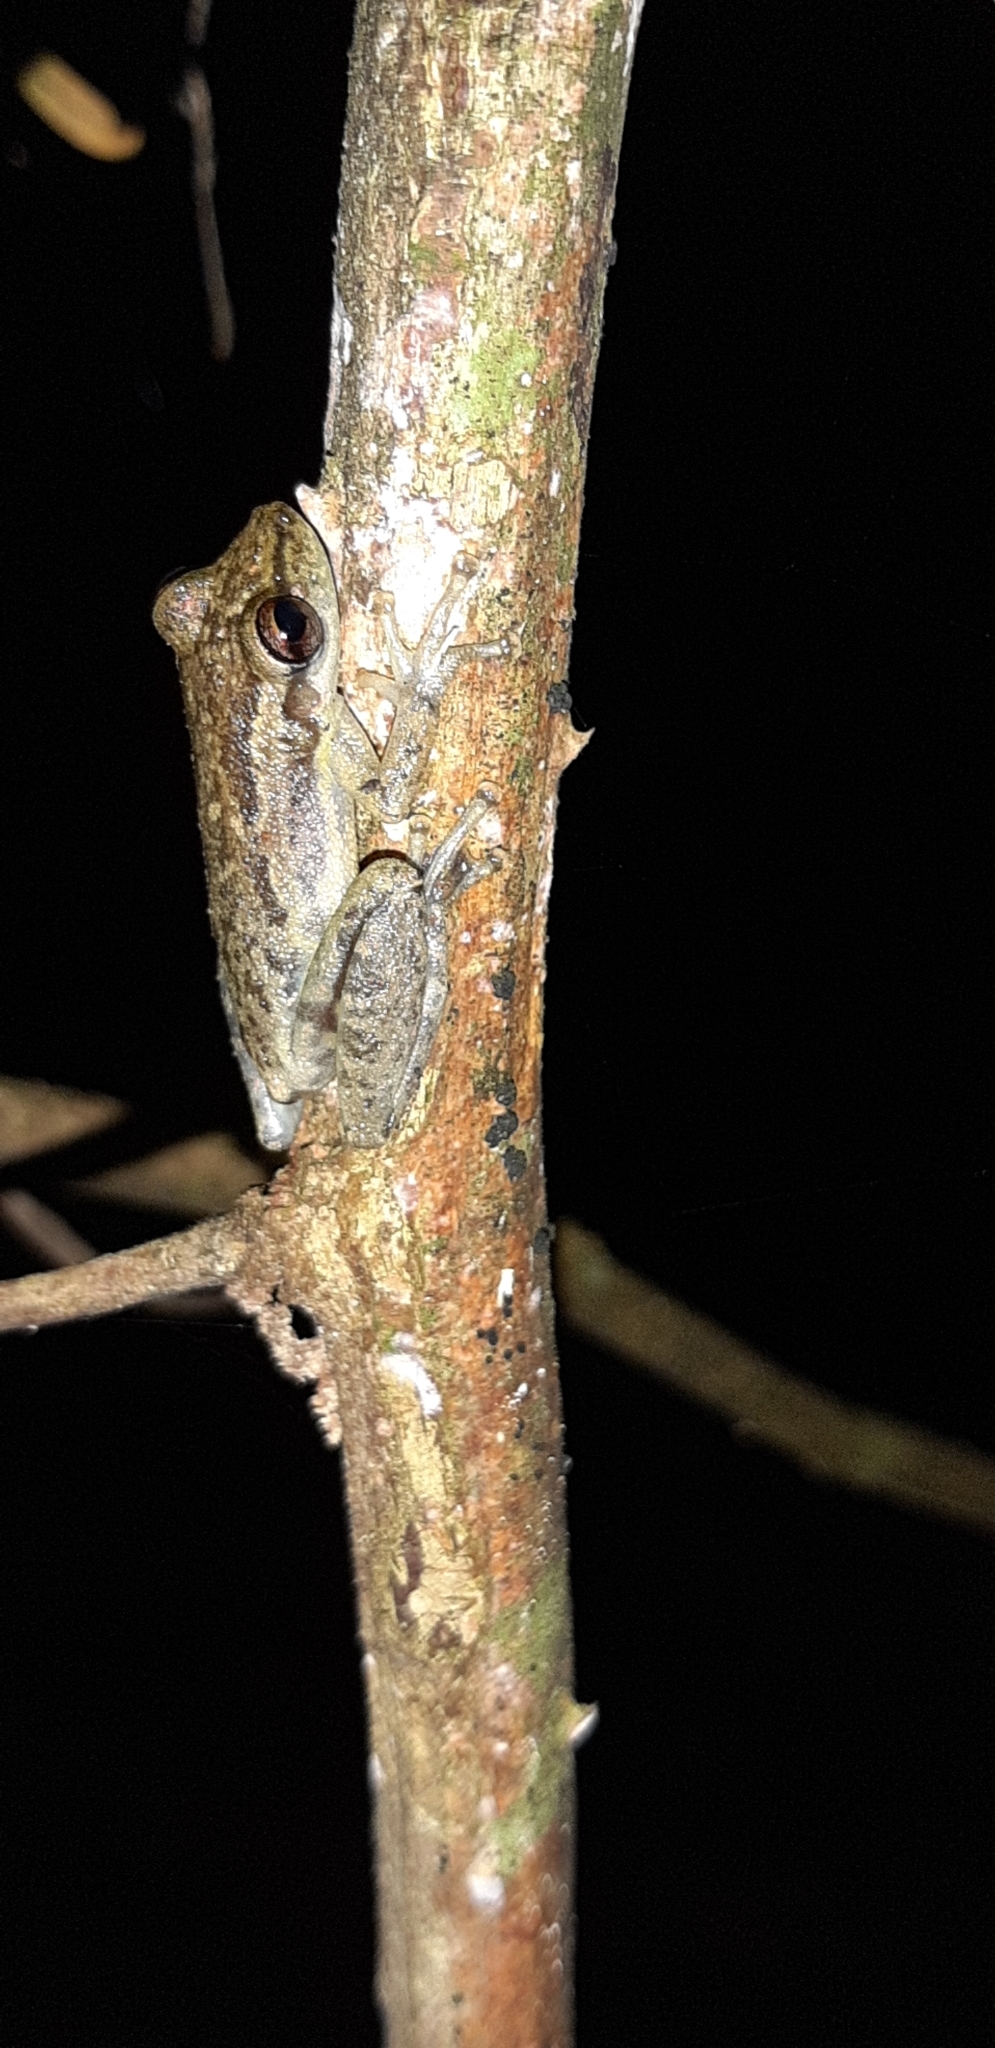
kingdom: Animalia
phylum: Chordata
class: Amphibia
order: Anura
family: Hylidae
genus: Scinax
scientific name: Scinax ruber
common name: Red snouted treefrog
